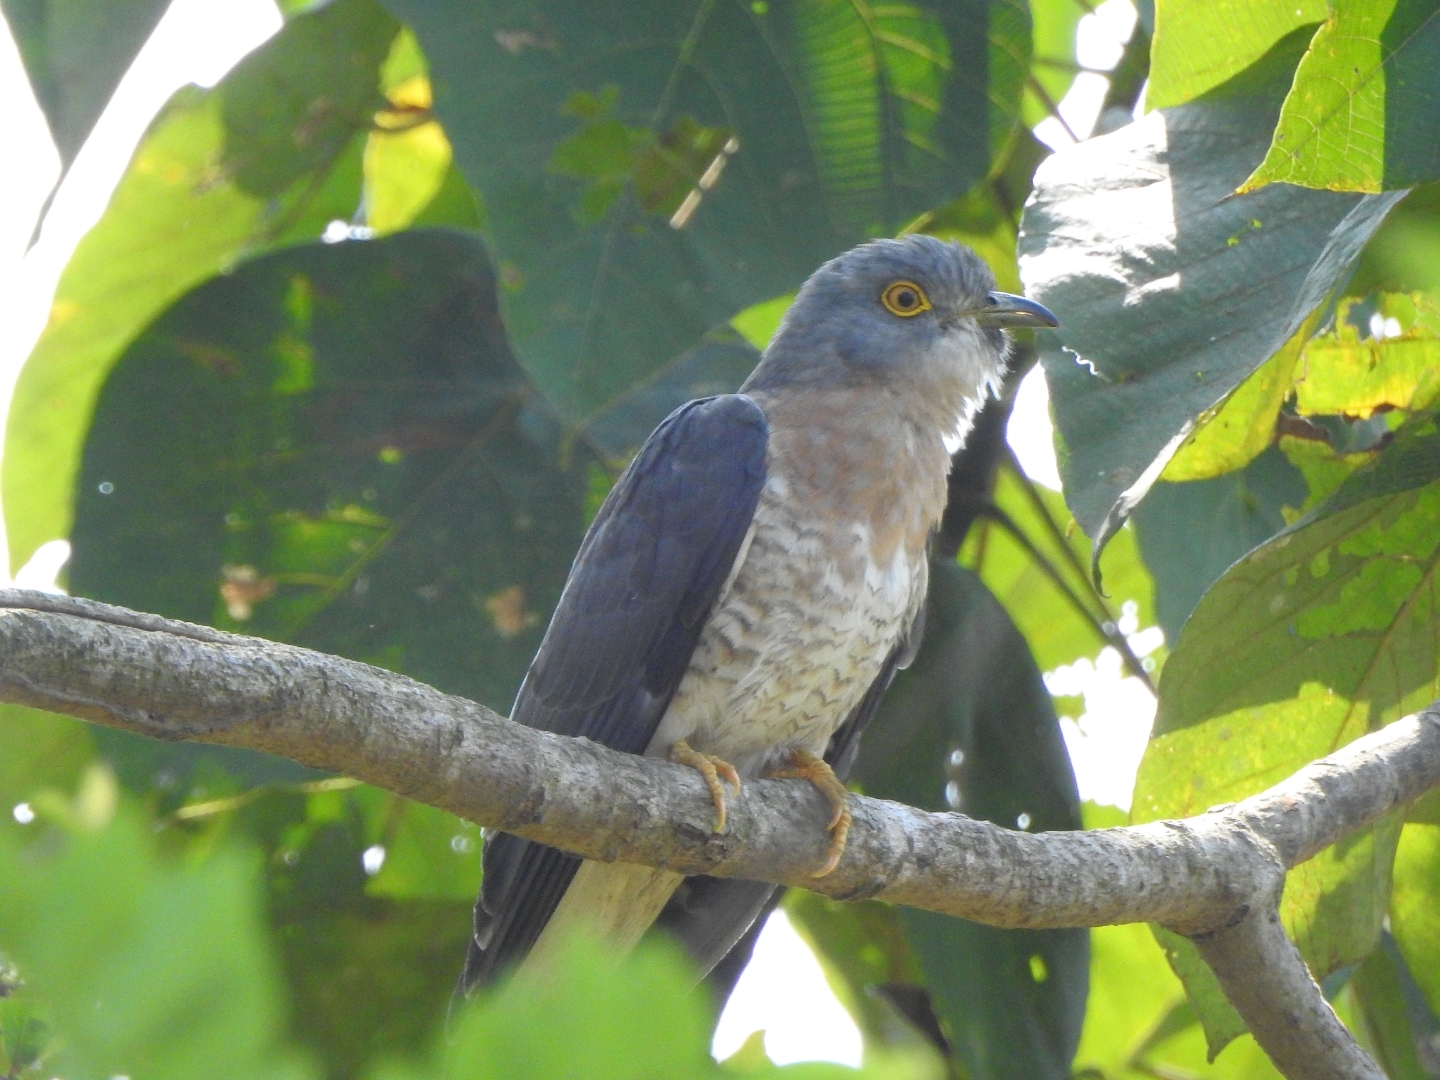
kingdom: Animalia
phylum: Chordata
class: Aves
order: Cuculiformes
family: Cuculidae
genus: Cuculus
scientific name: Cuculus varius
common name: Common hawk cuckoo
